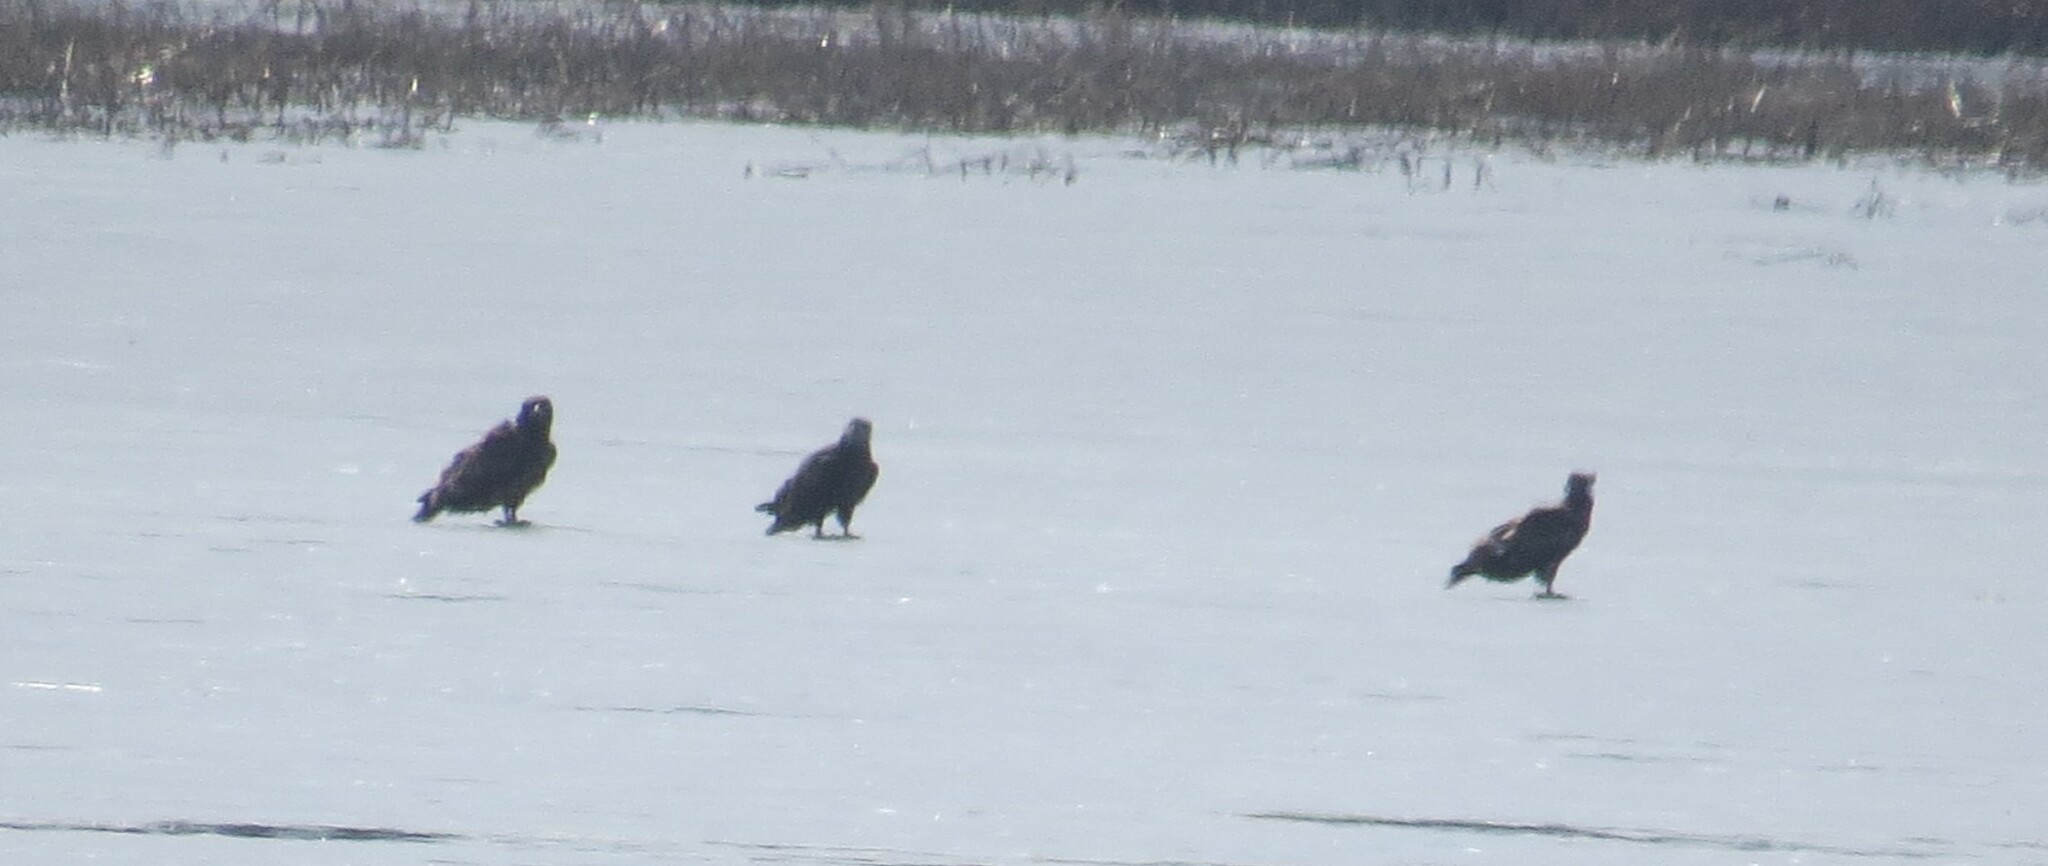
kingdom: Animalia
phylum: Chordata
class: Aves
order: Accipitriformes
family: Accipitridae
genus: Haliaeetus
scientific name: Haliaeetus leucocephalus
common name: Bald eagle
